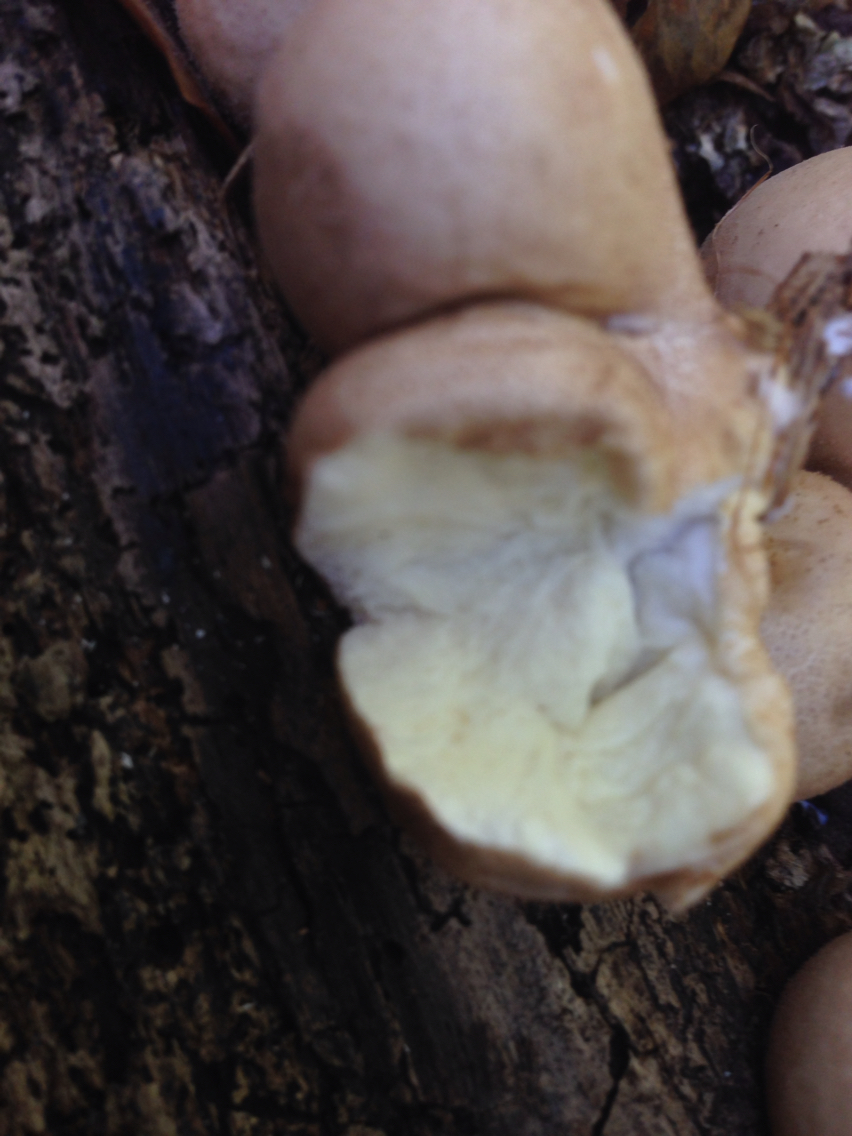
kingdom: Fungi
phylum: Basidiomycota
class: Agaricomycetes
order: Agaricales
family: Lycoperdaceae
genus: Apioperdon
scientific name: Apioperdon pyriforme
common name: Pear-shaped puffball
